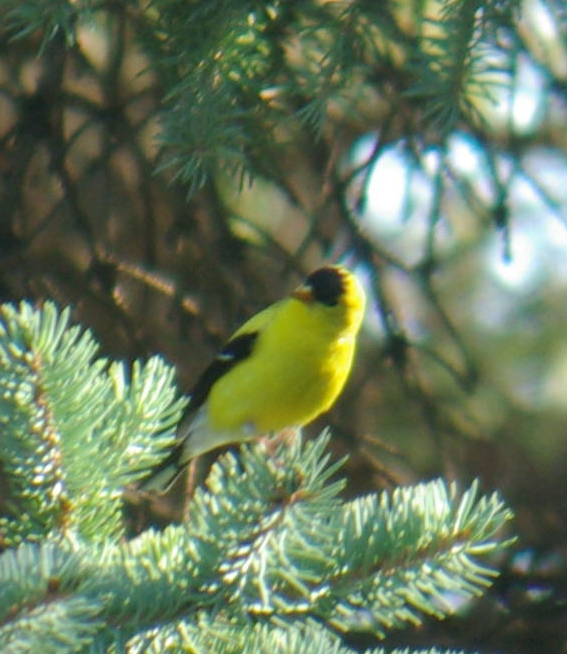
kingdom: Animalia
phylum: Chordata
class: Aves
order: Passeriformes
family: Fringillidae
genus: Spinus
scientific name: Spinus tristis
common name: American goldfinch
